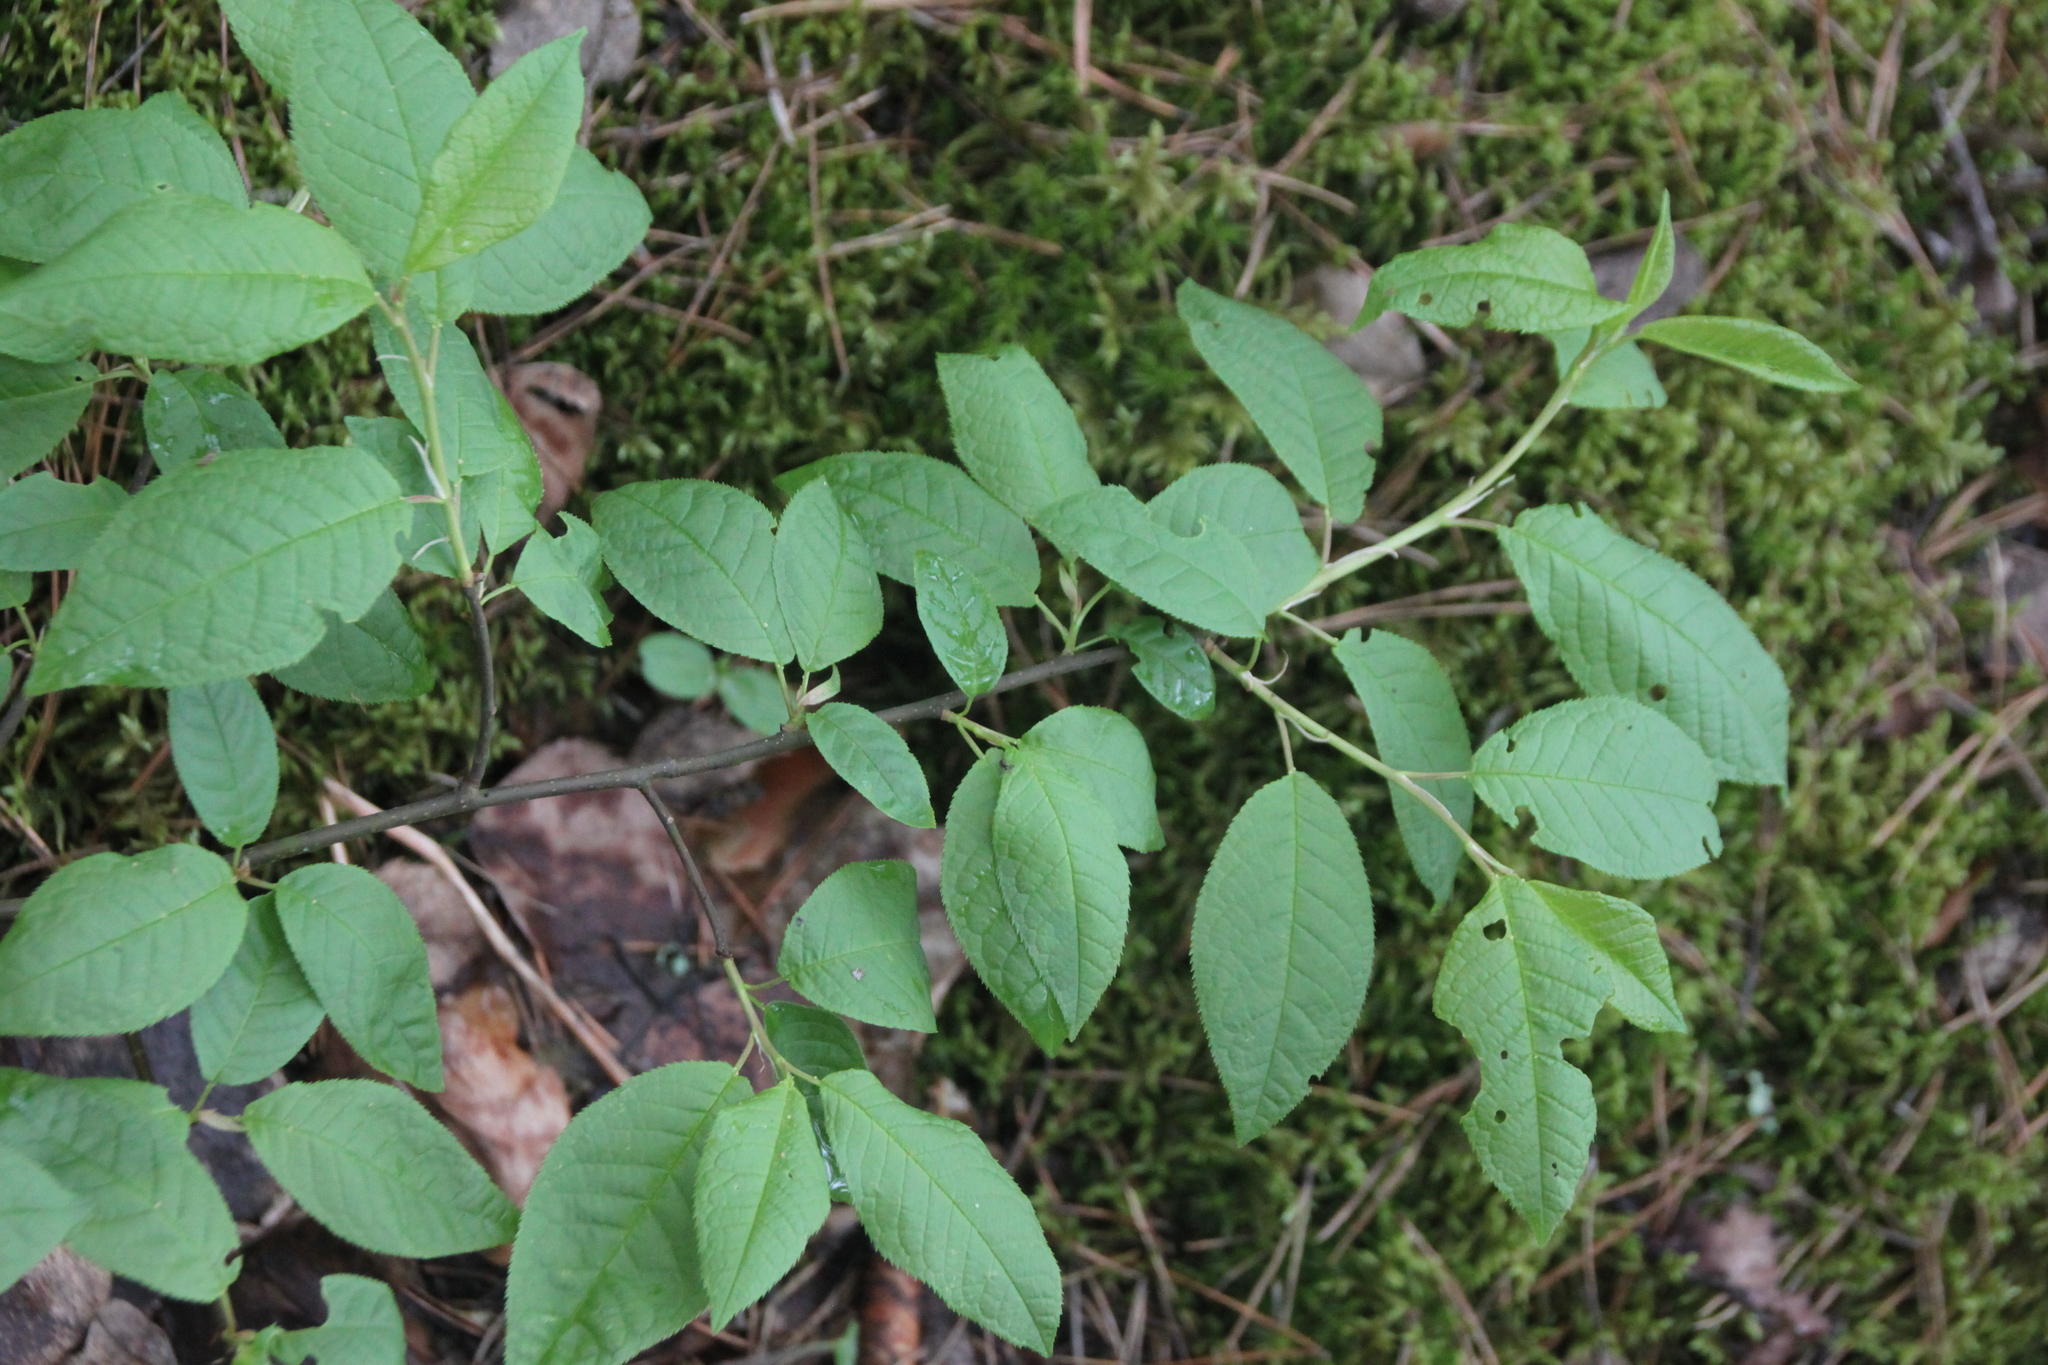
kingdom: Plantae
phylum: Tracheophyta
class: Magnoliopsida
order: Rosales
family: Rosaceae
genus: Prunus
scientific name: Prunus padus
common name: Bird cherry
